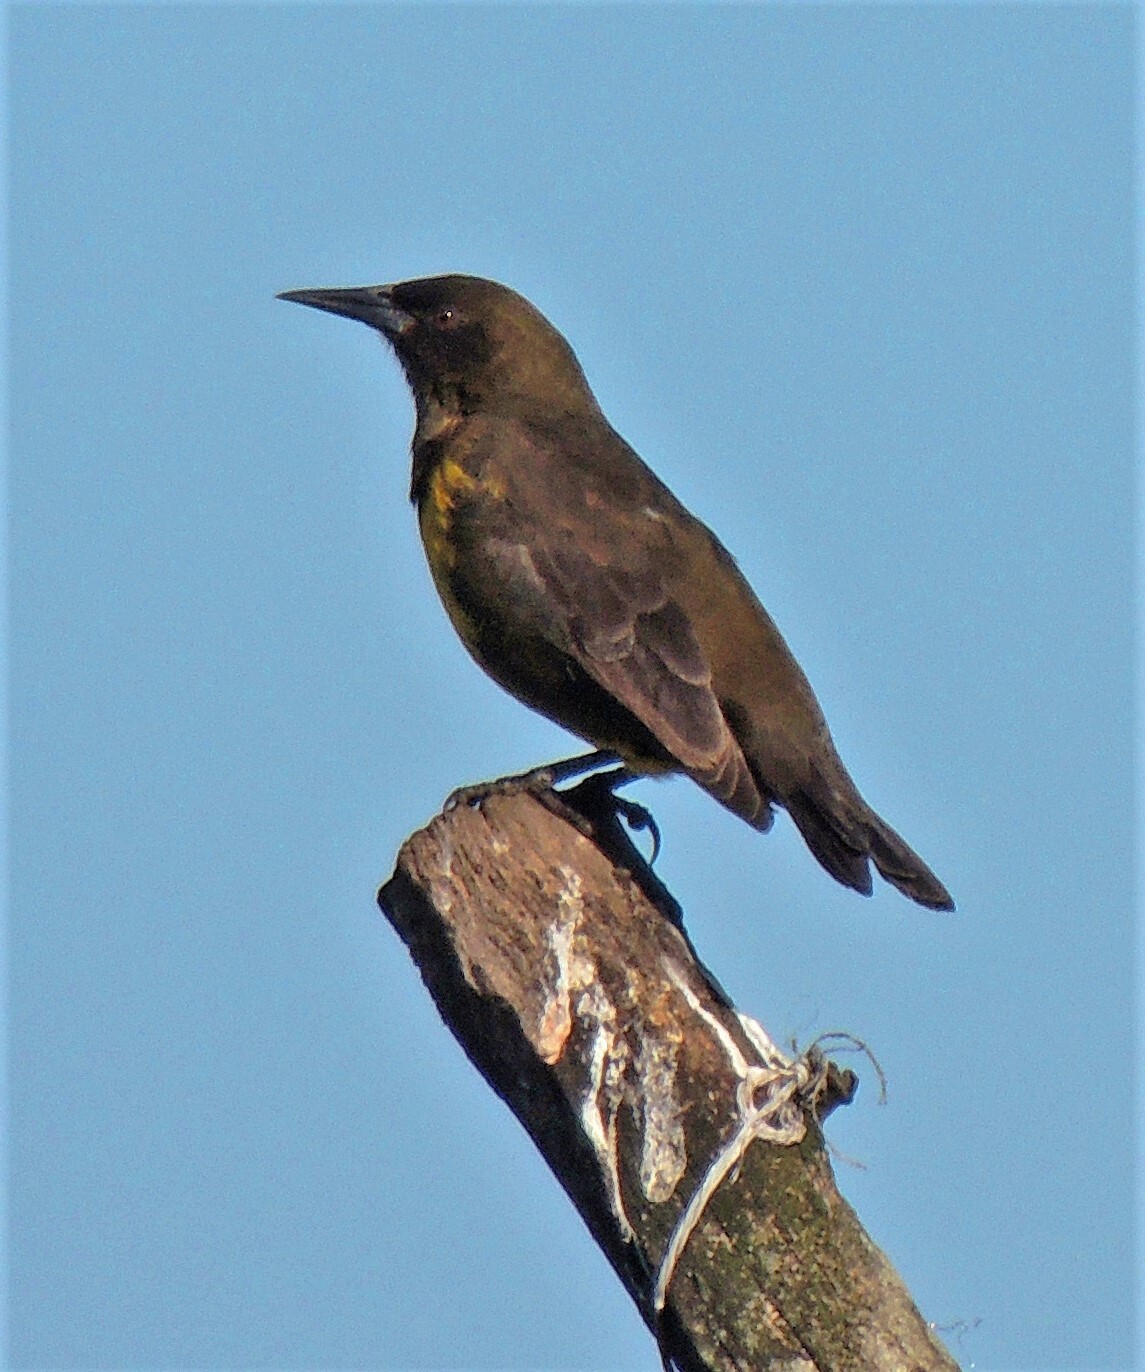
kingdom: Animalia
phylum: Chordata
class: Aves
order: Passeriformes
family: Icteridae
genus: Pseudoleistes
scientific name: Pseudoleistes virescens
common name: Brown-and-yellow marshbird
